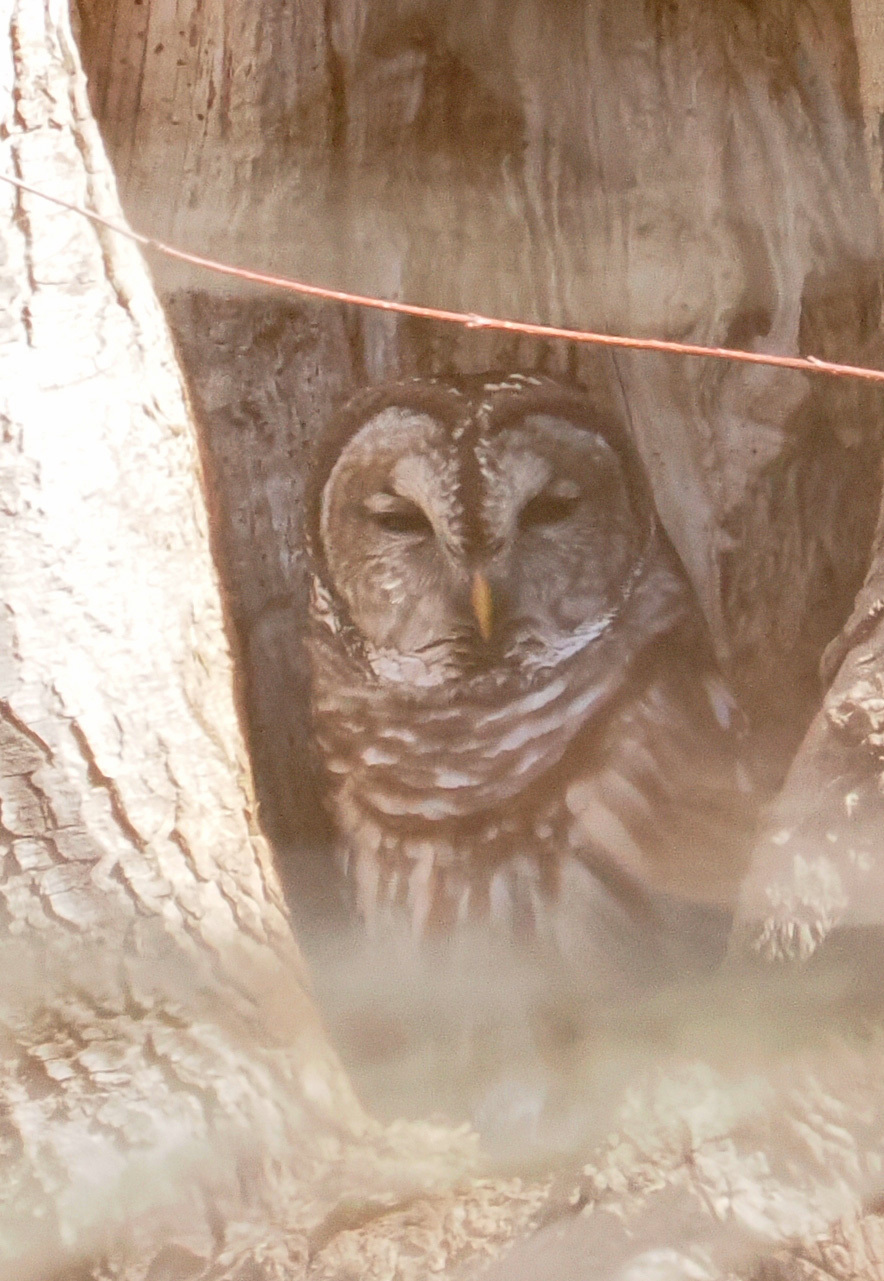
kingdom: Animalia
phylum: Chordata
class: Aves
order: Strigiformes
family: Strigidae
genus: Strix
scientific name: Strix varia
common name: Barred owl
